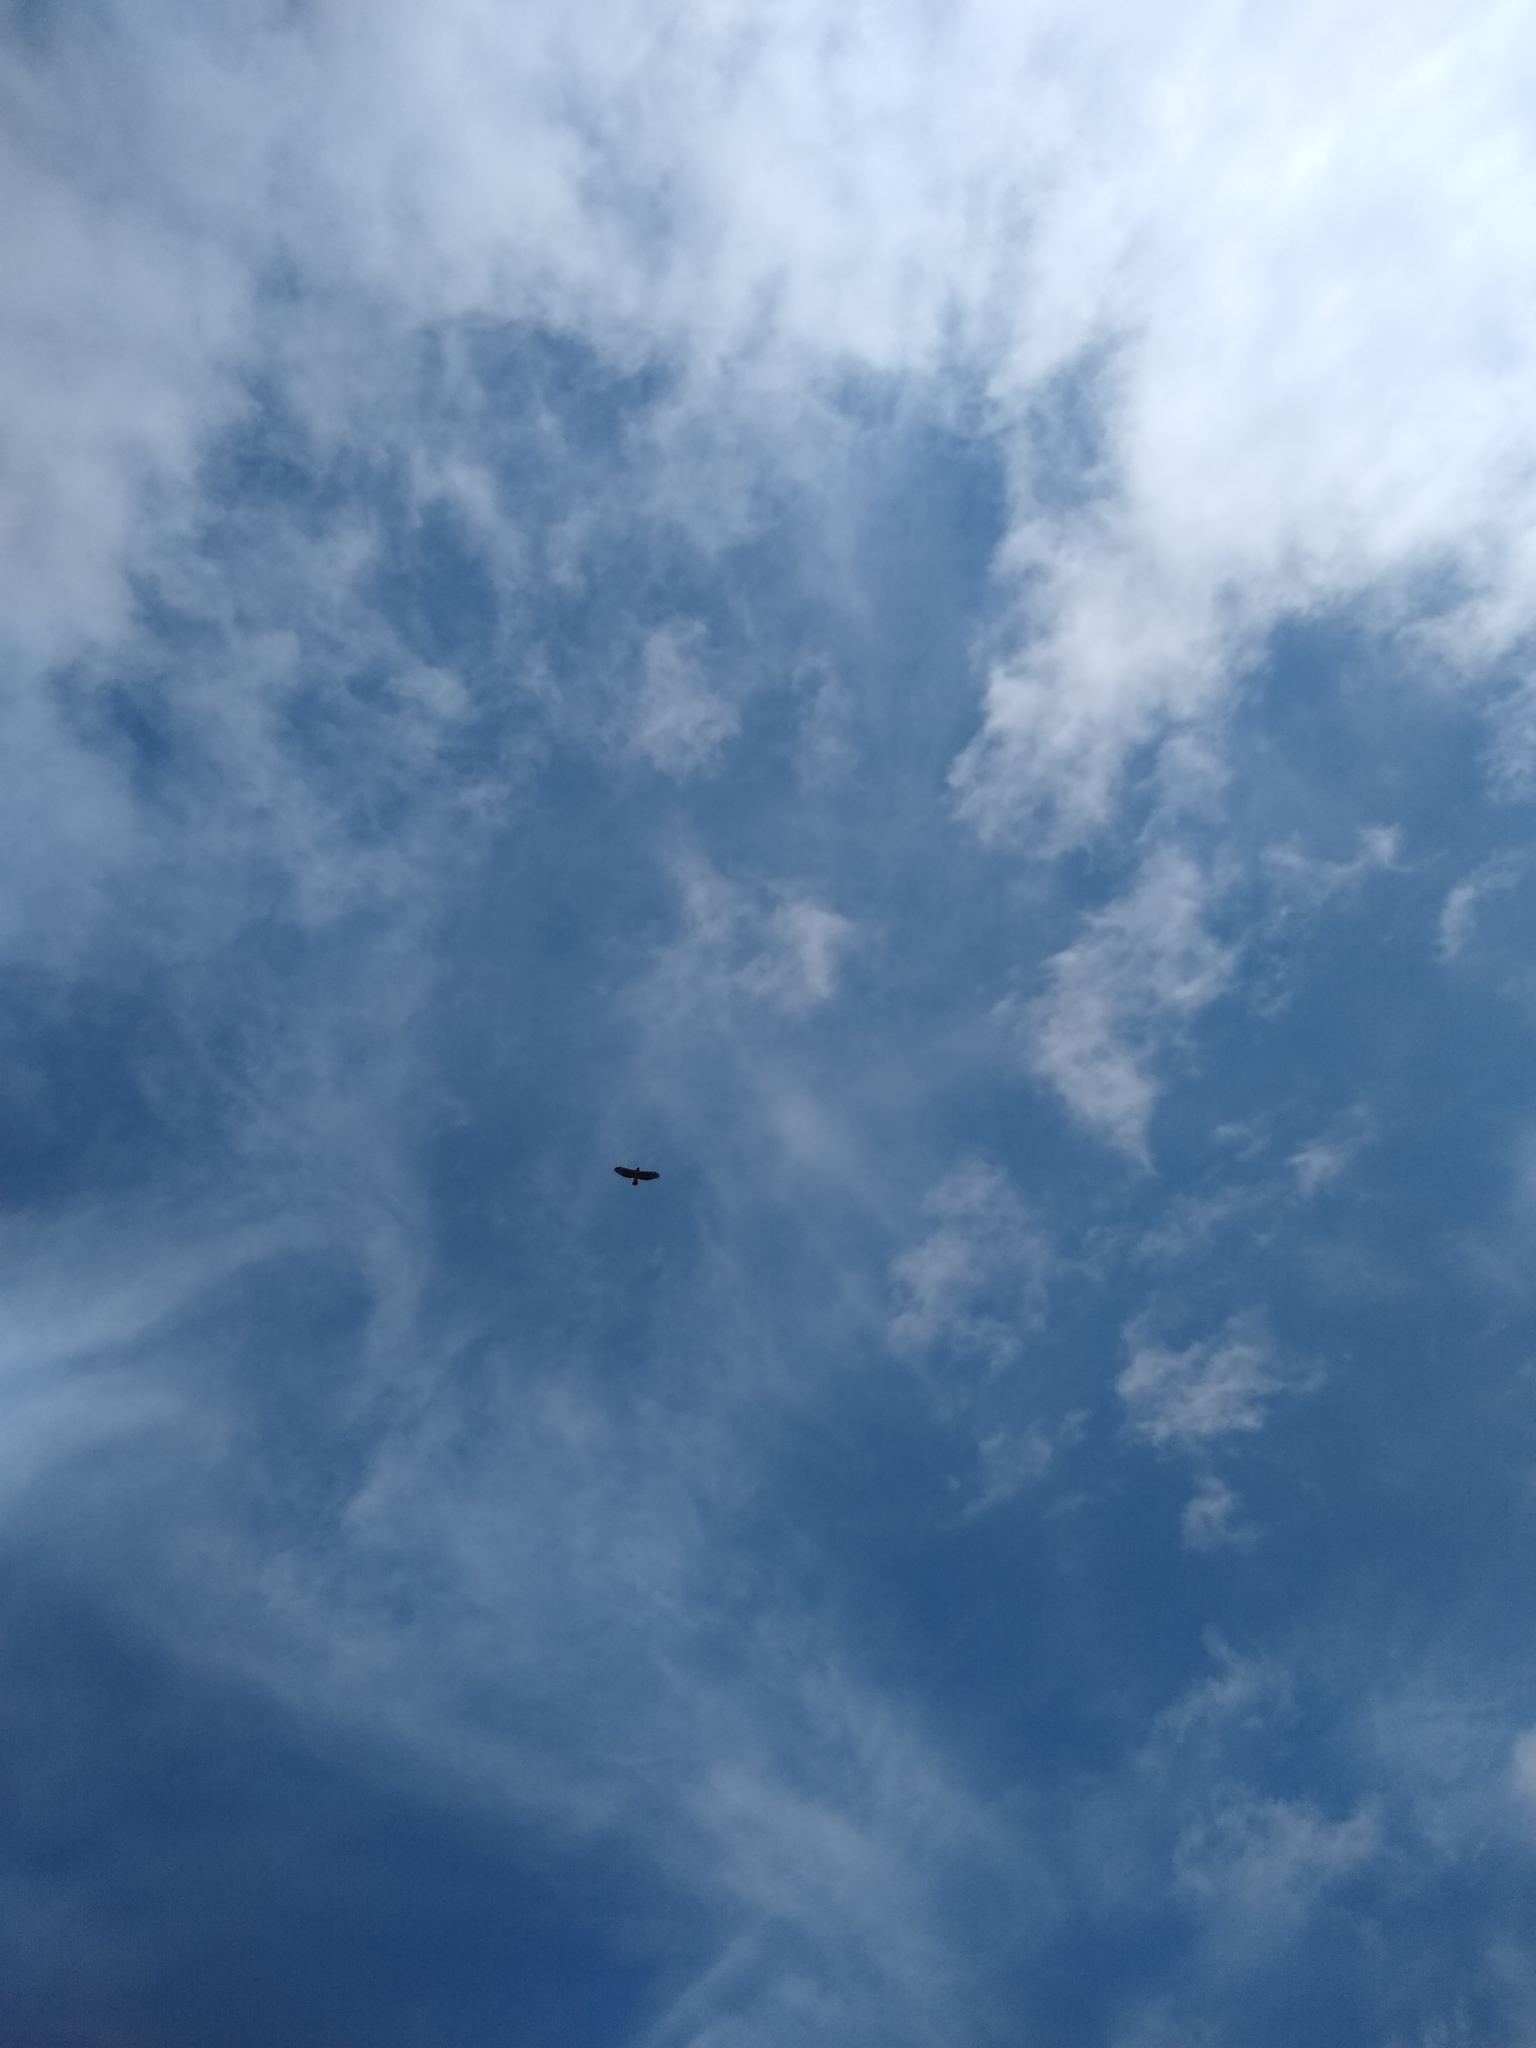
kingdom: Animalia
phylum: Chordata
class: Aves
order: Accipitriformes
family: Accipitridae
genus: Buteo
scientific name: Buteo jamaicensis
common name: Red-tailed hawk
